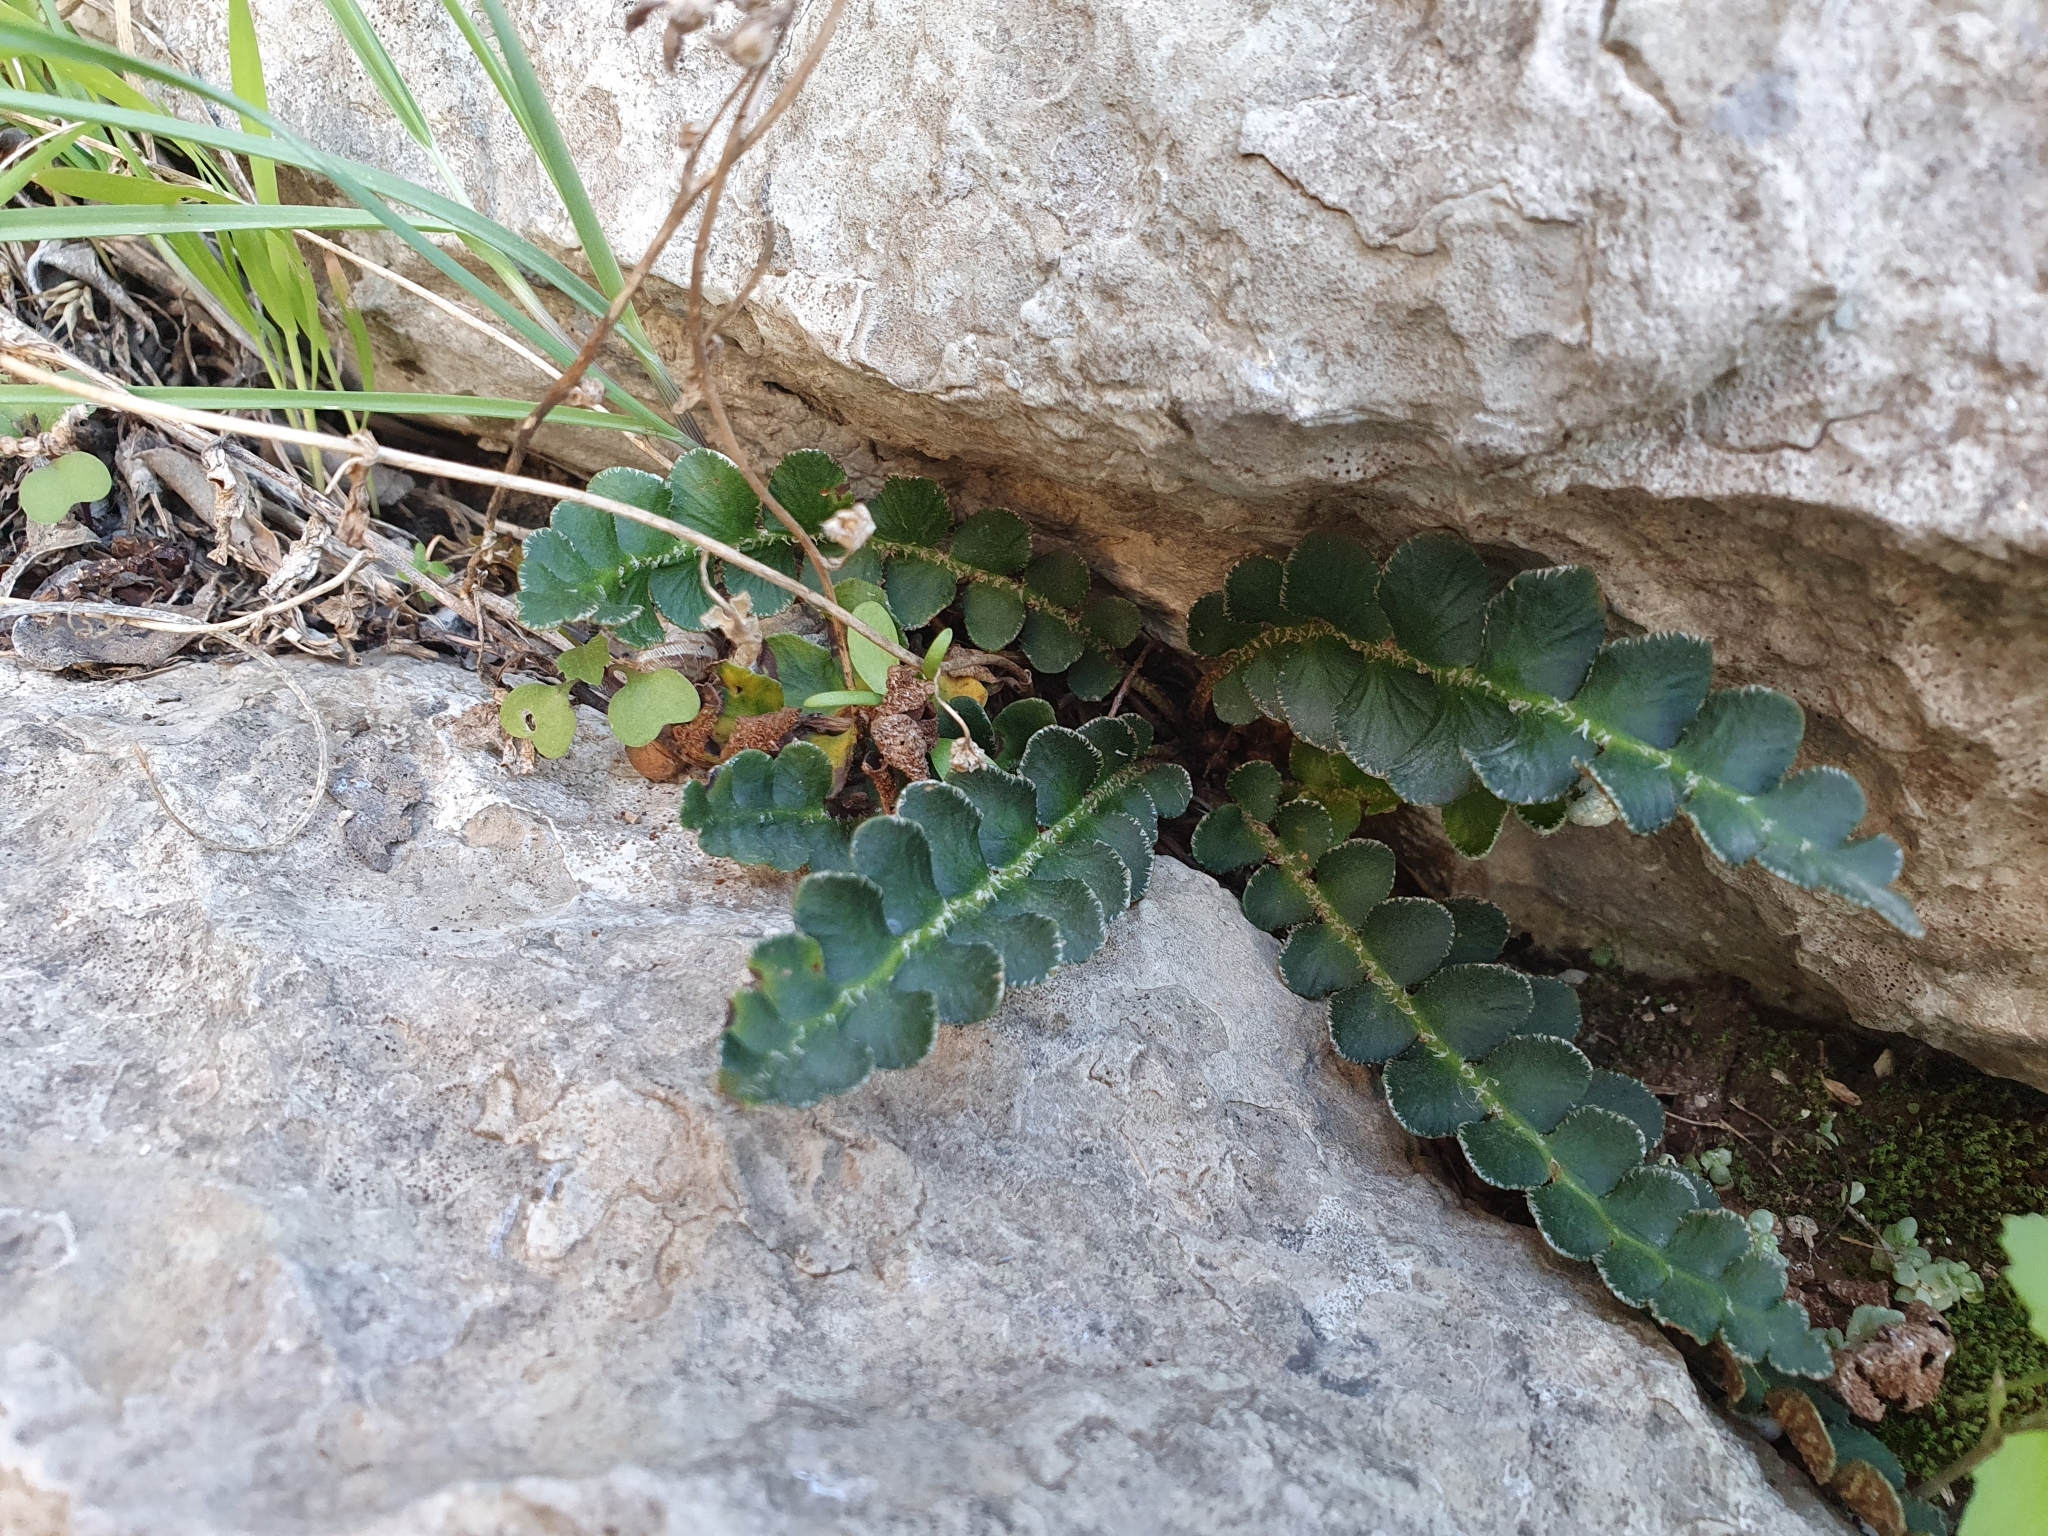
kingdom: Plantae
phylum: Tracheophyta
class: Polypodiopsida
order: Polypodiales
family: Aspleniaceae
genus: Asplenium
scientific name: Asplenium ceterach
